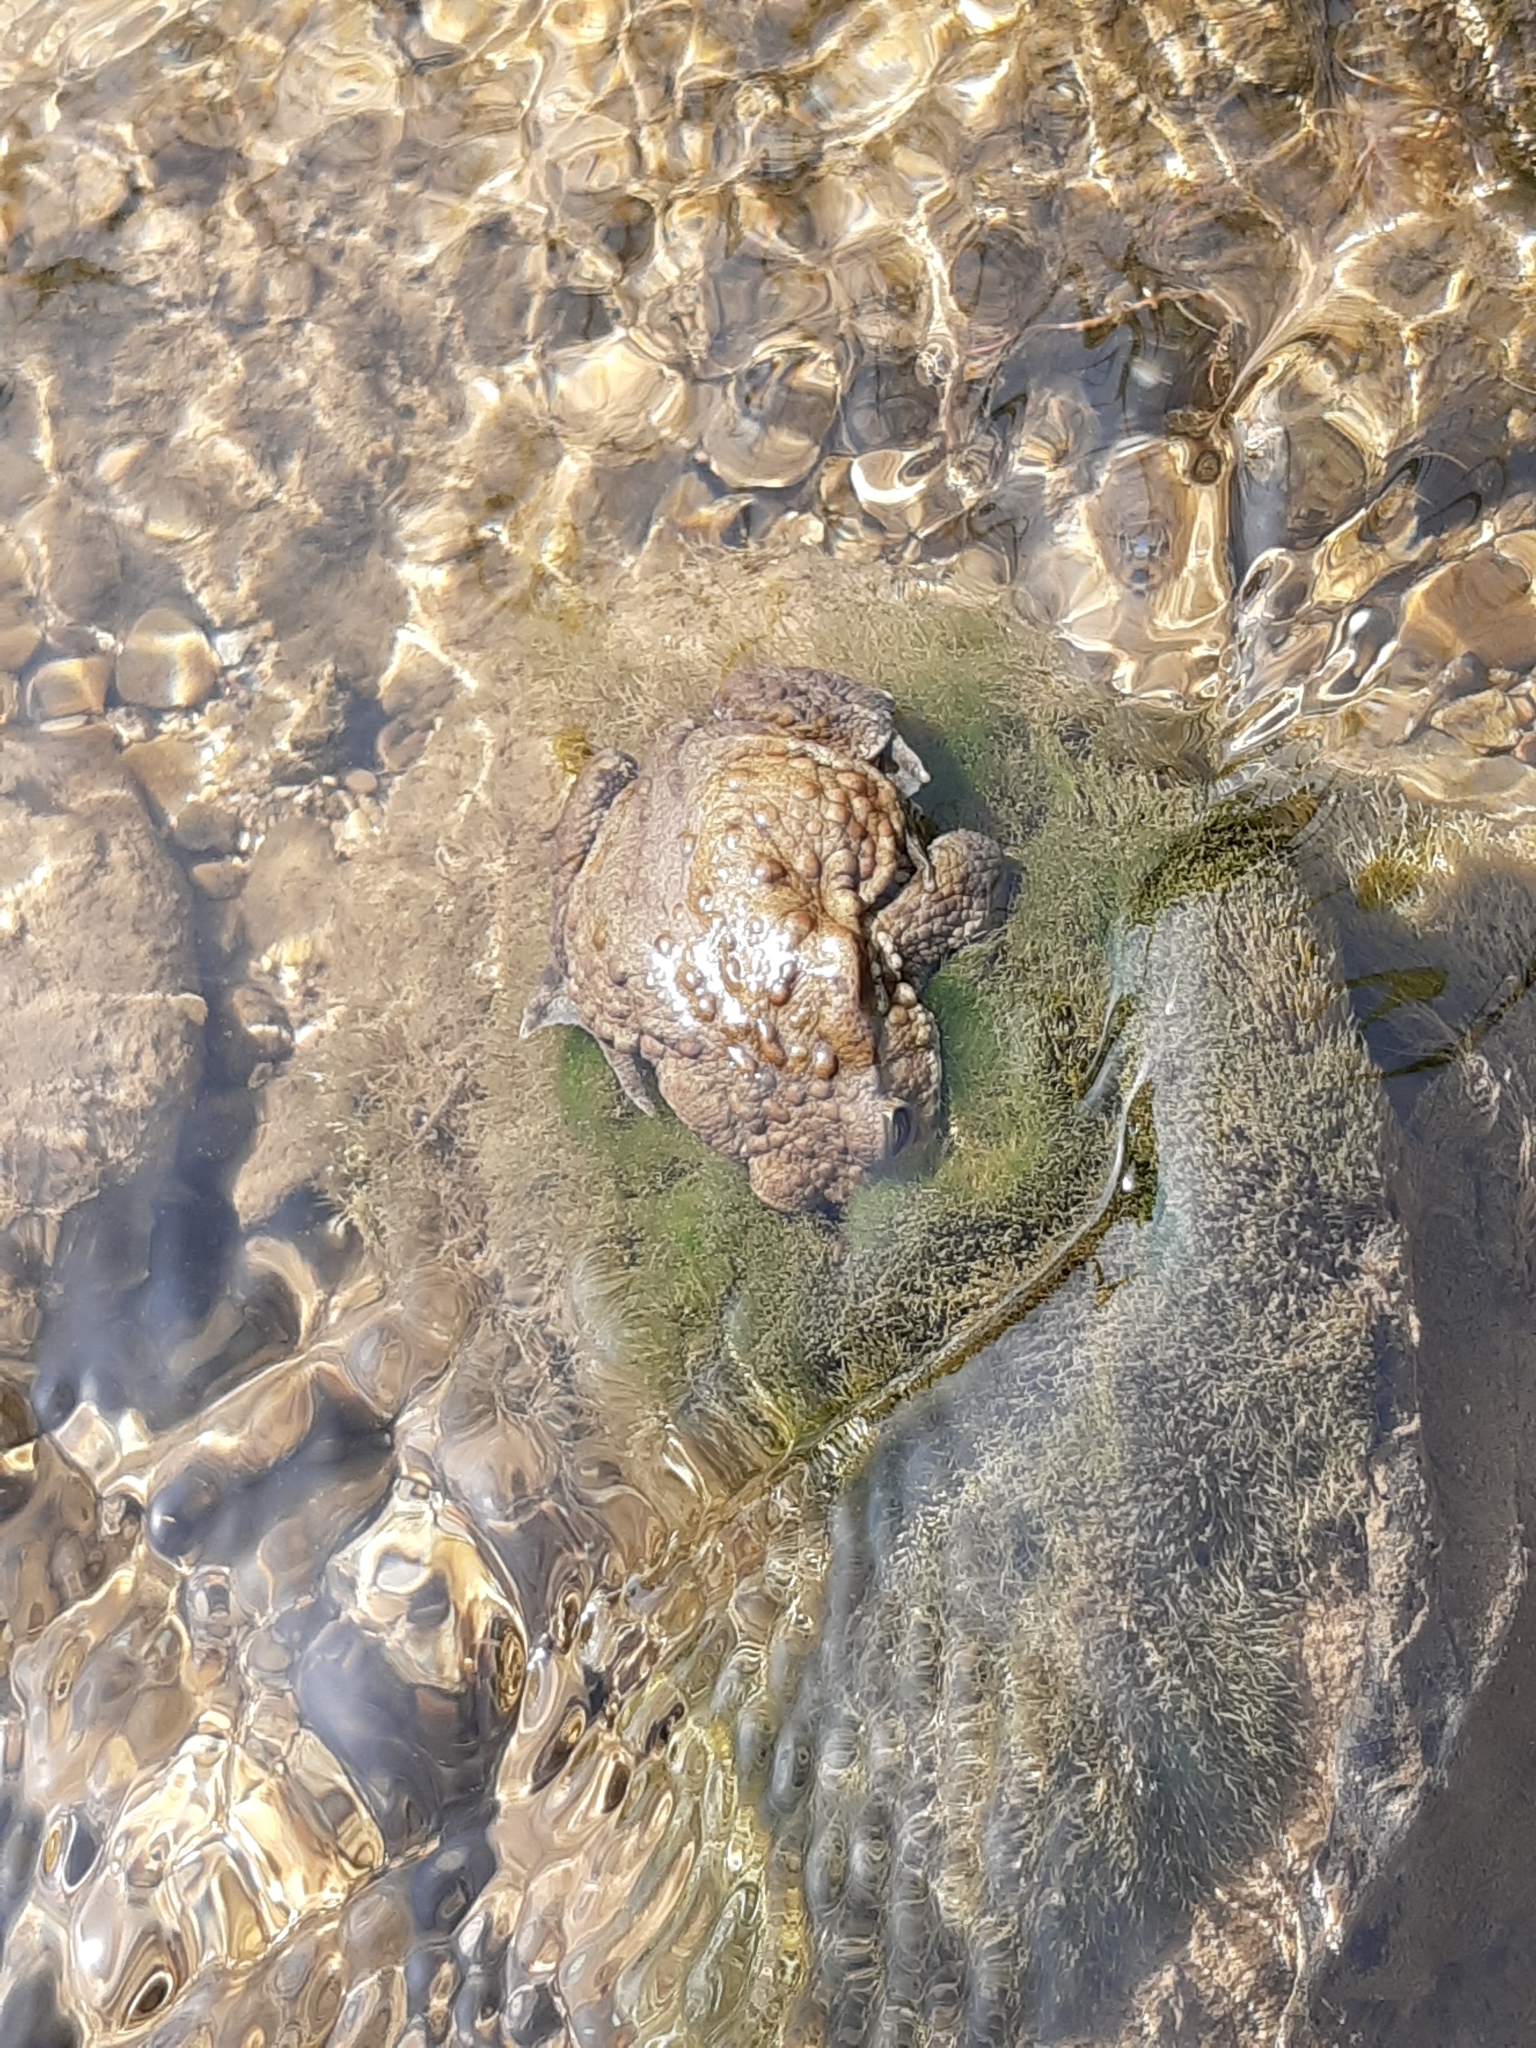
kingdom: Animalia
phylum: Chordata
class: Amphibia
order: Anura
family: Bufonidae
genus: Bufo
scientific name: Bufo bufo
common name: Common toad
